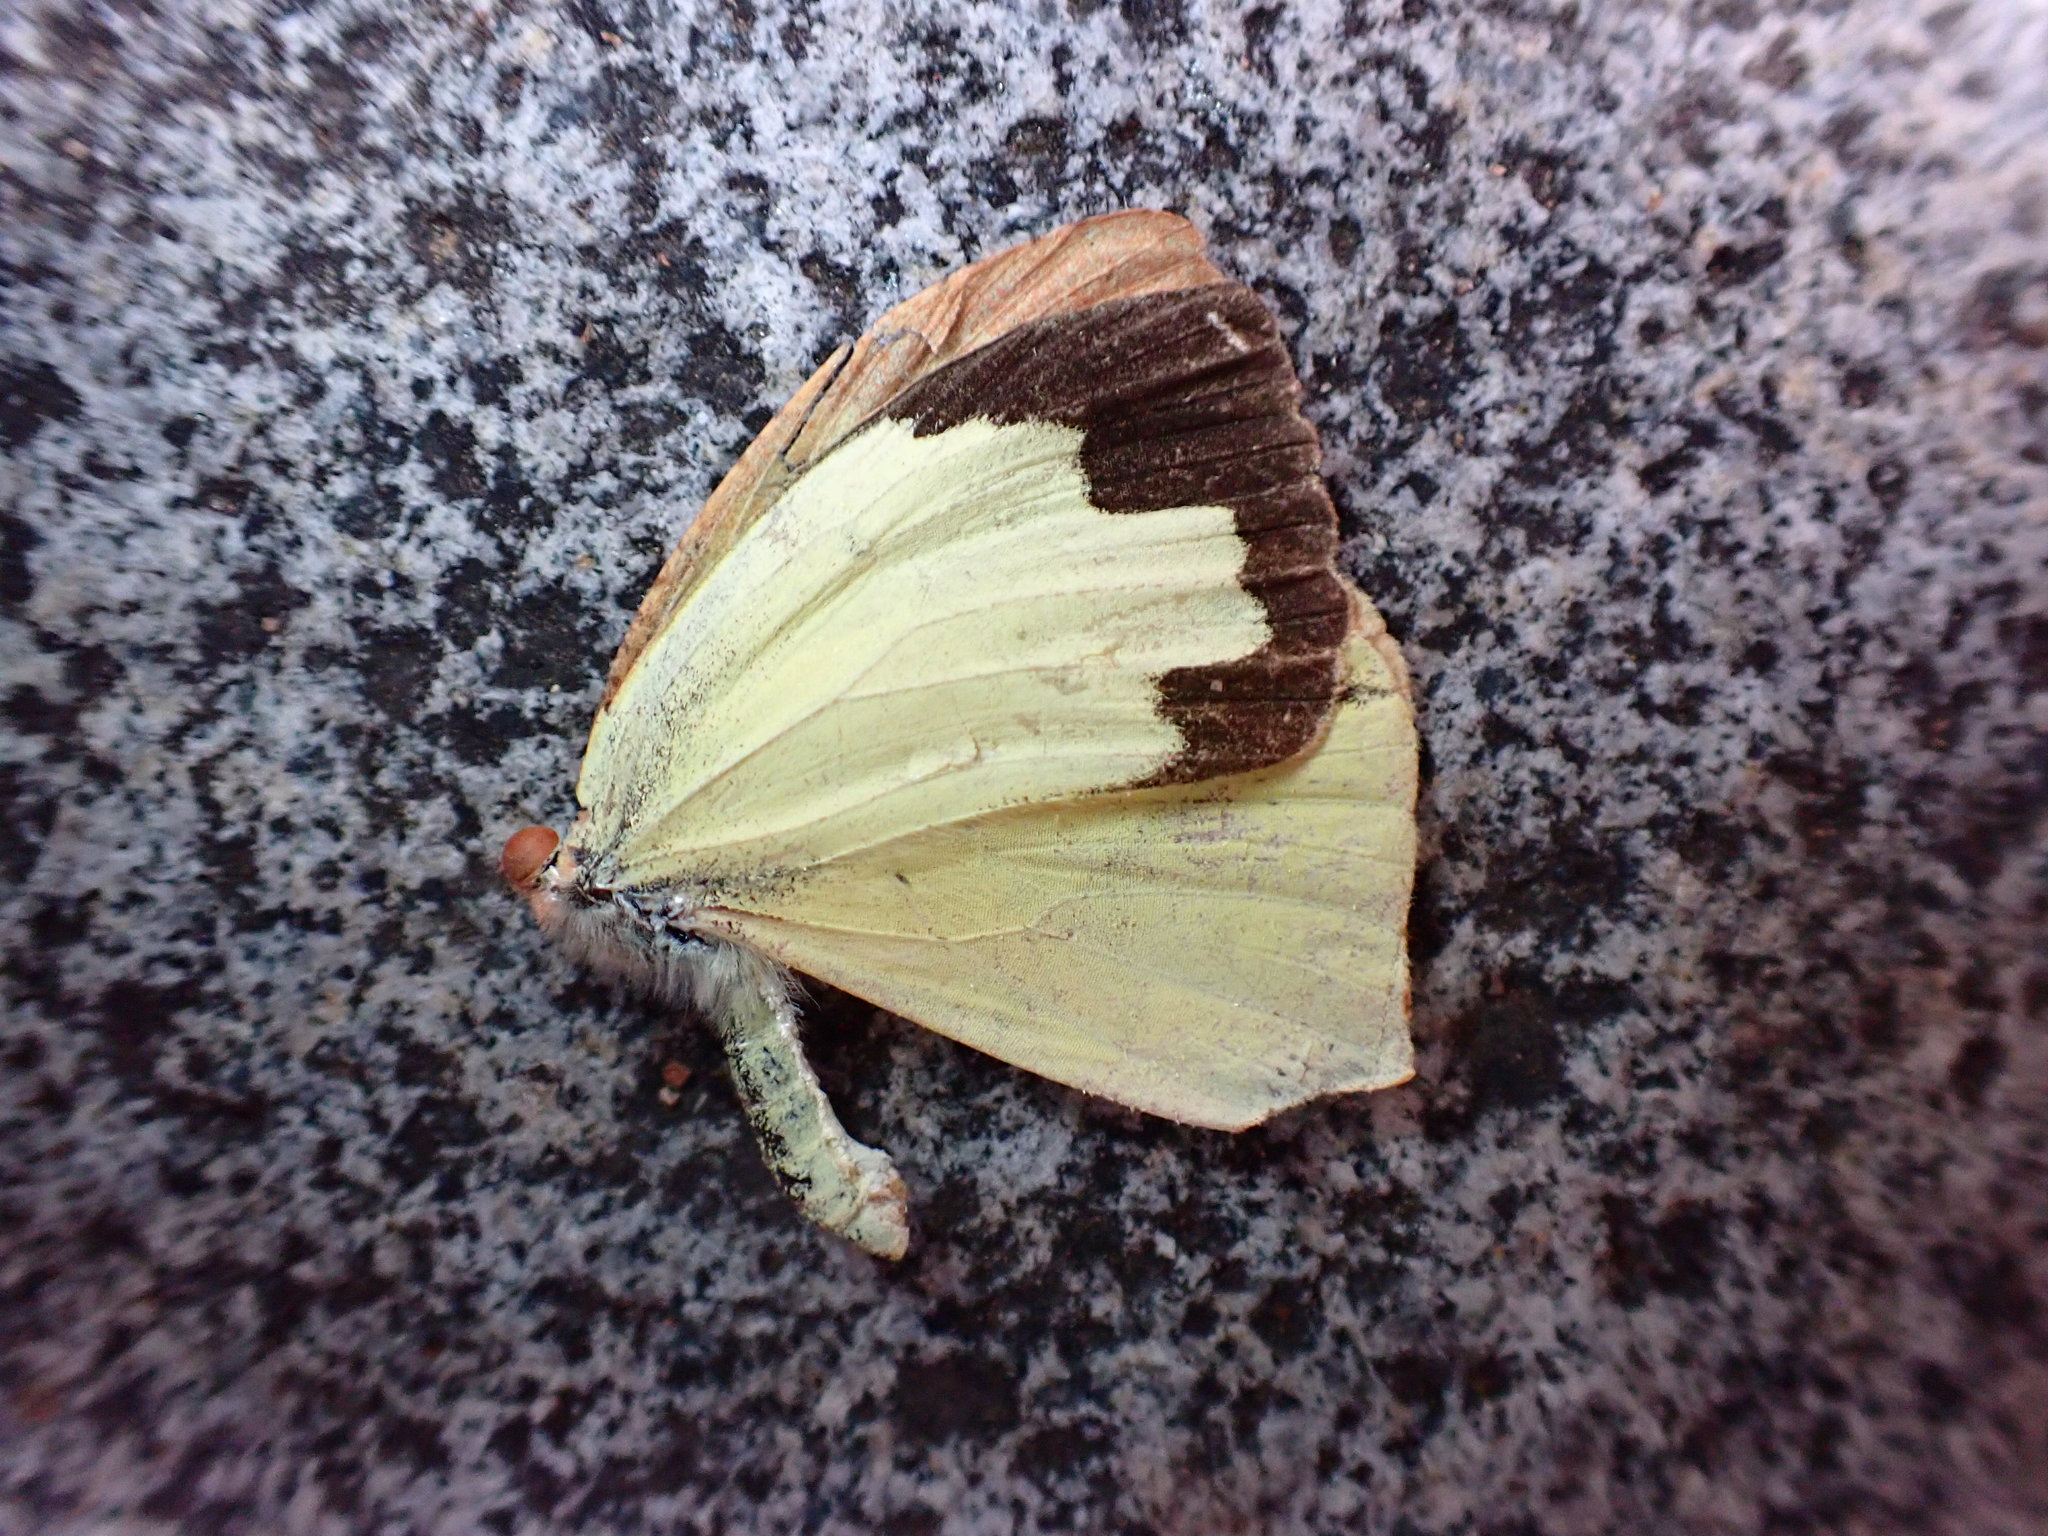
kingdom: Animalia
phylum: Arthropoda
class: Insecta
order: Lepidoptera
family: Pieridae
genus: Abaeis
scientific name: Abaeis mexicana
